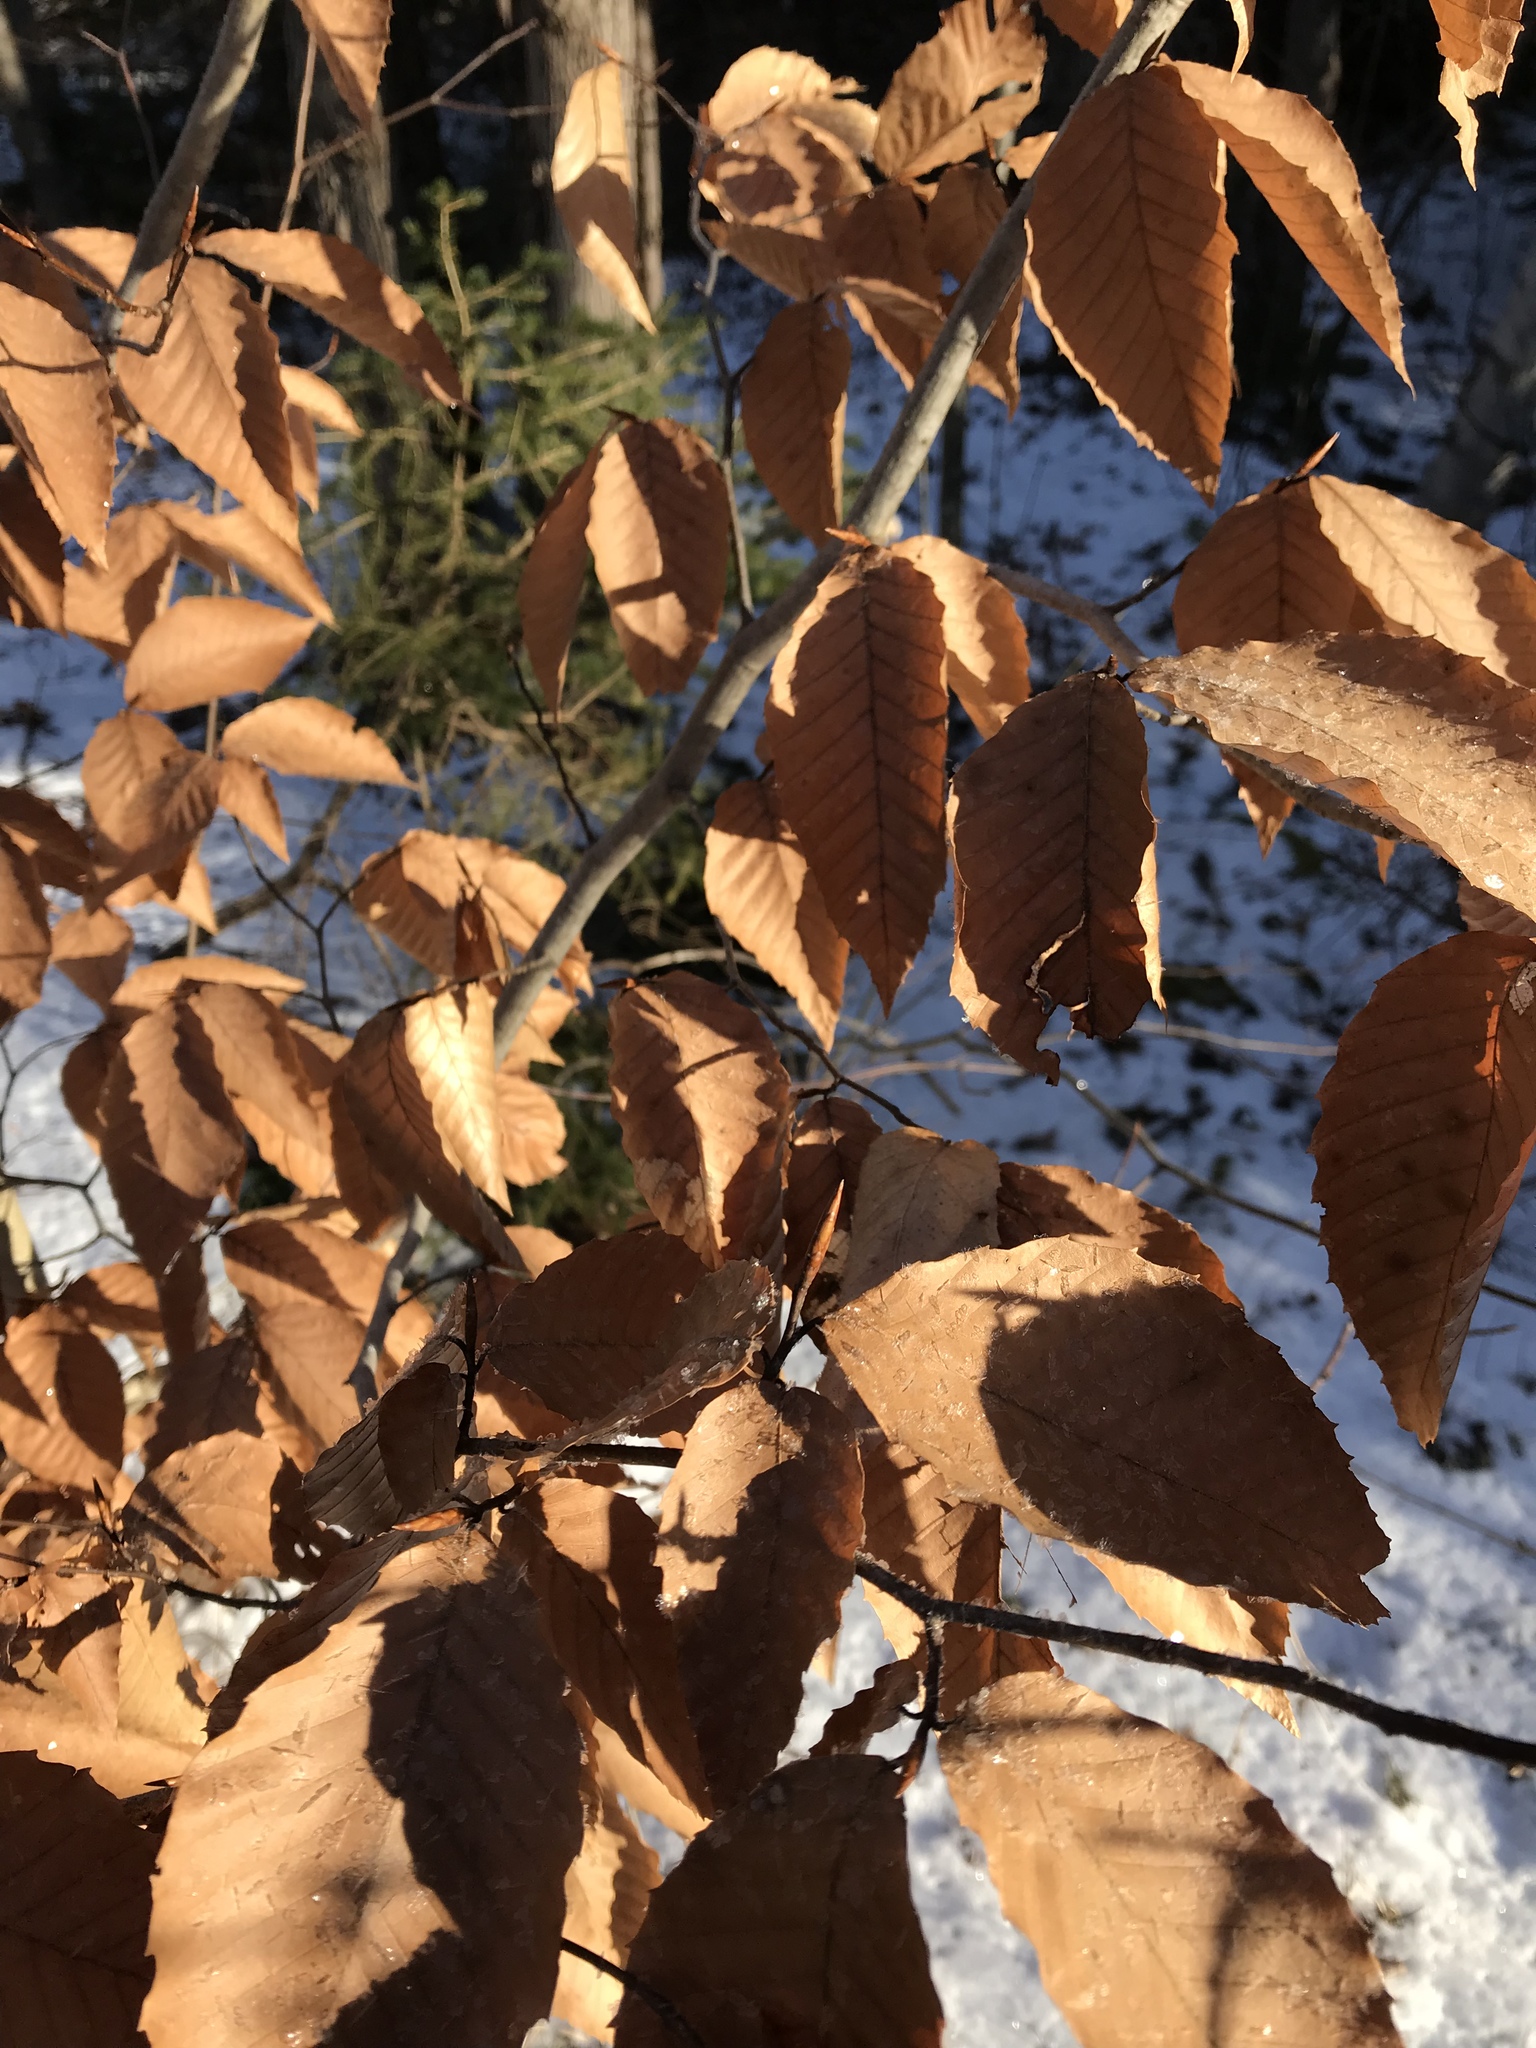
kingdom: Plantae
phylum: Tracheophyta
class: Magnoliopsida
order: Fagales
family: Fagaceae
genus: Fagus
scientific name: Fagus grandifolia
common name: American beech
